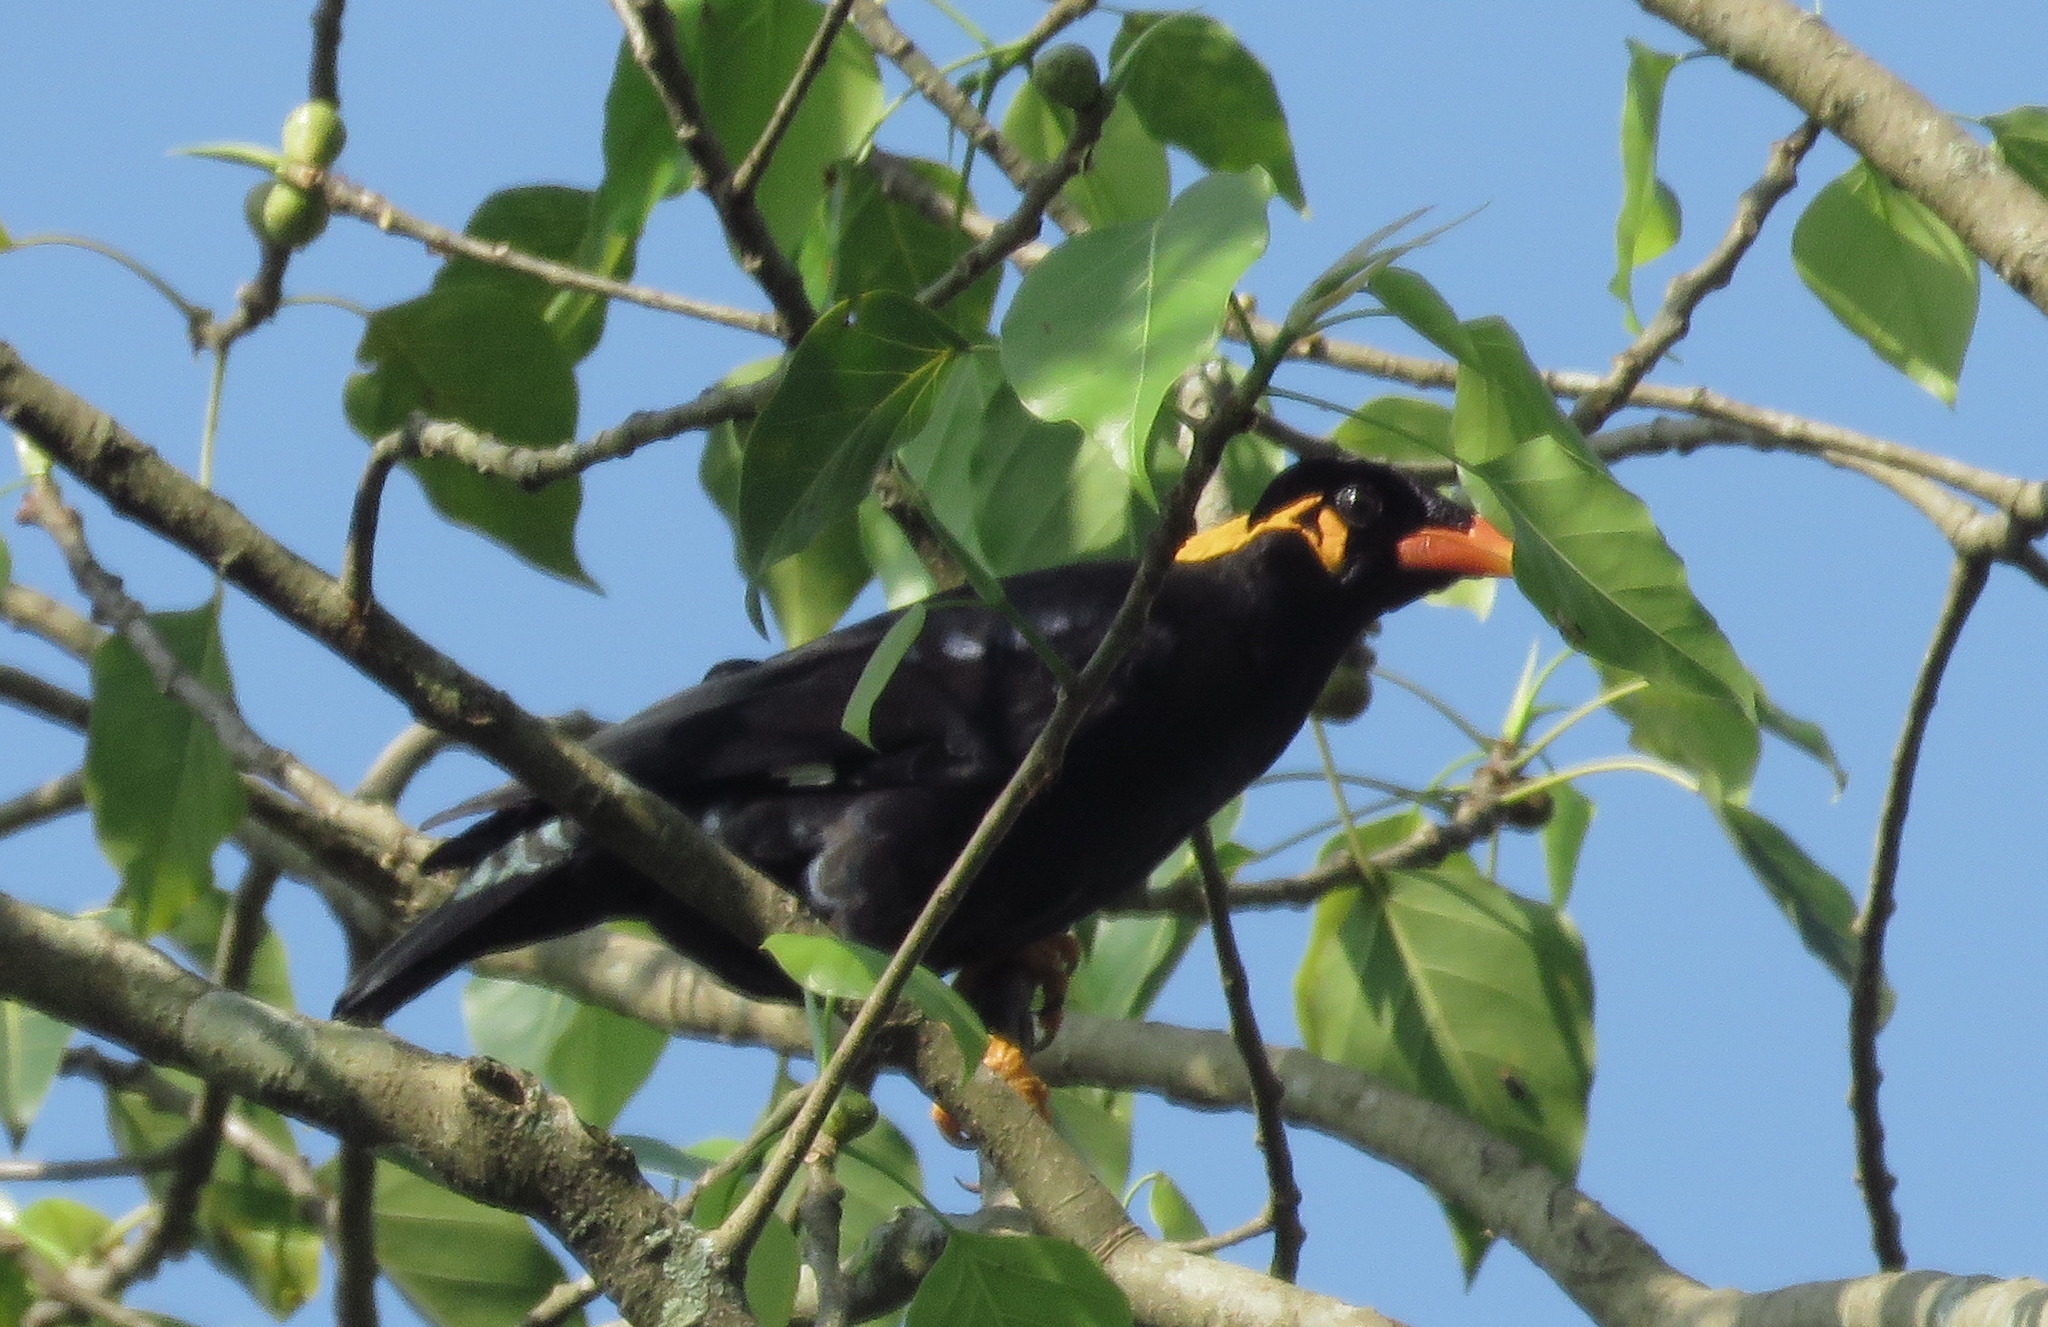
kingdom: Animalia
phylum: Chordata
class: Aves
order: Passeriformes
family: Sturnidae
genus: Gracula
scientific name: Gracula religiosa
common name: Common hill myna
